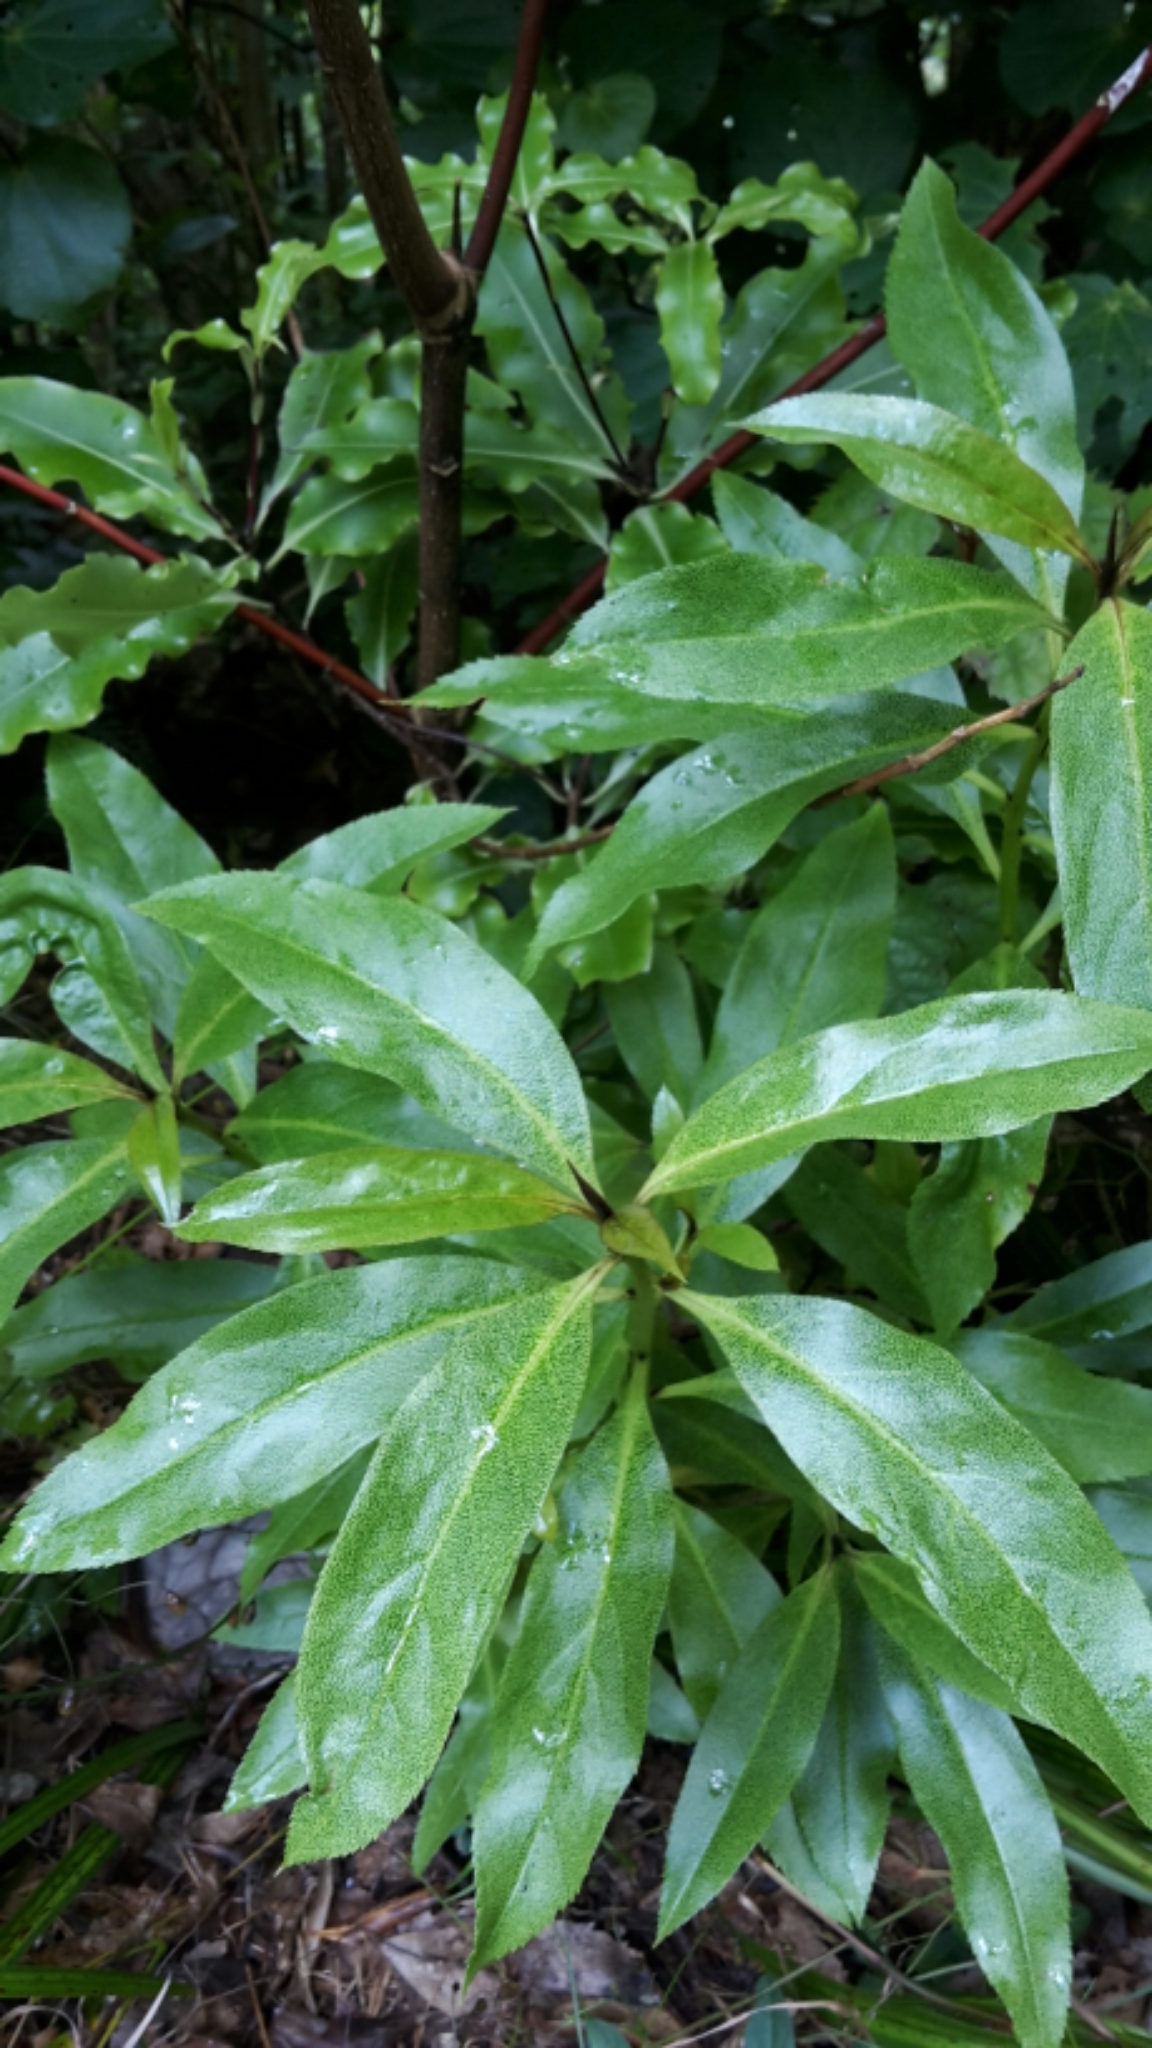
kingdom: Plantae
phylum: Tracheophyta
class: Magnoliopsida
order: Lamiales
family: Scrophulariaceae
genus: Myoporum
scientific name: Myoporum laetum
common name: Ngaio tree
